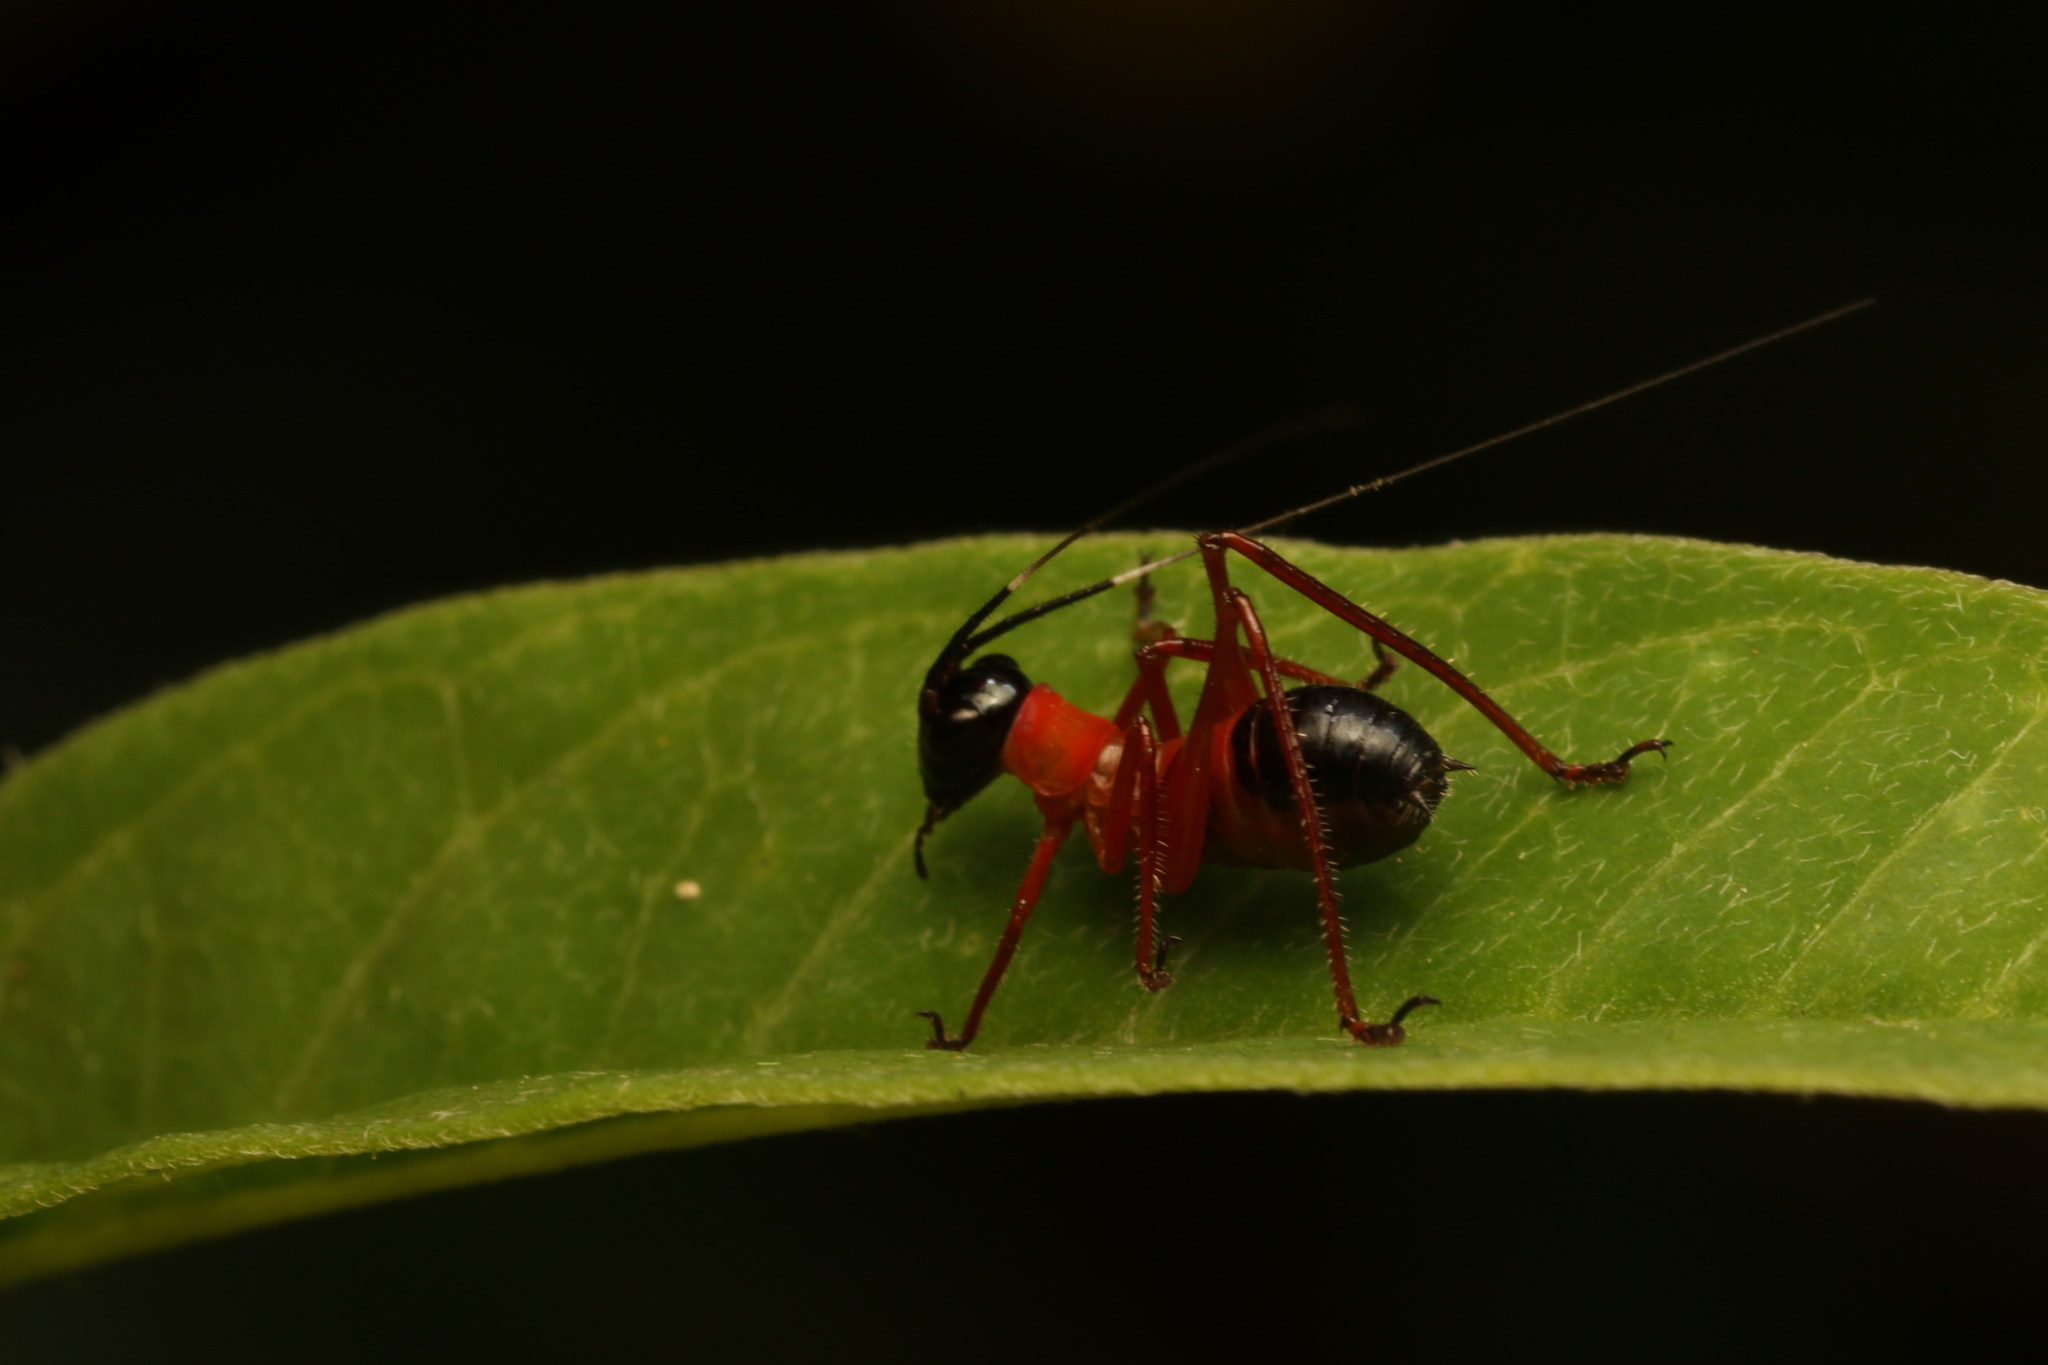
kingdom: Animalia
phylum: Arthropoda
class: Insecta
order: Orthoptera
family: Tettigoniidae
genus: Scaphura
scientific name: Scaphura nigra
